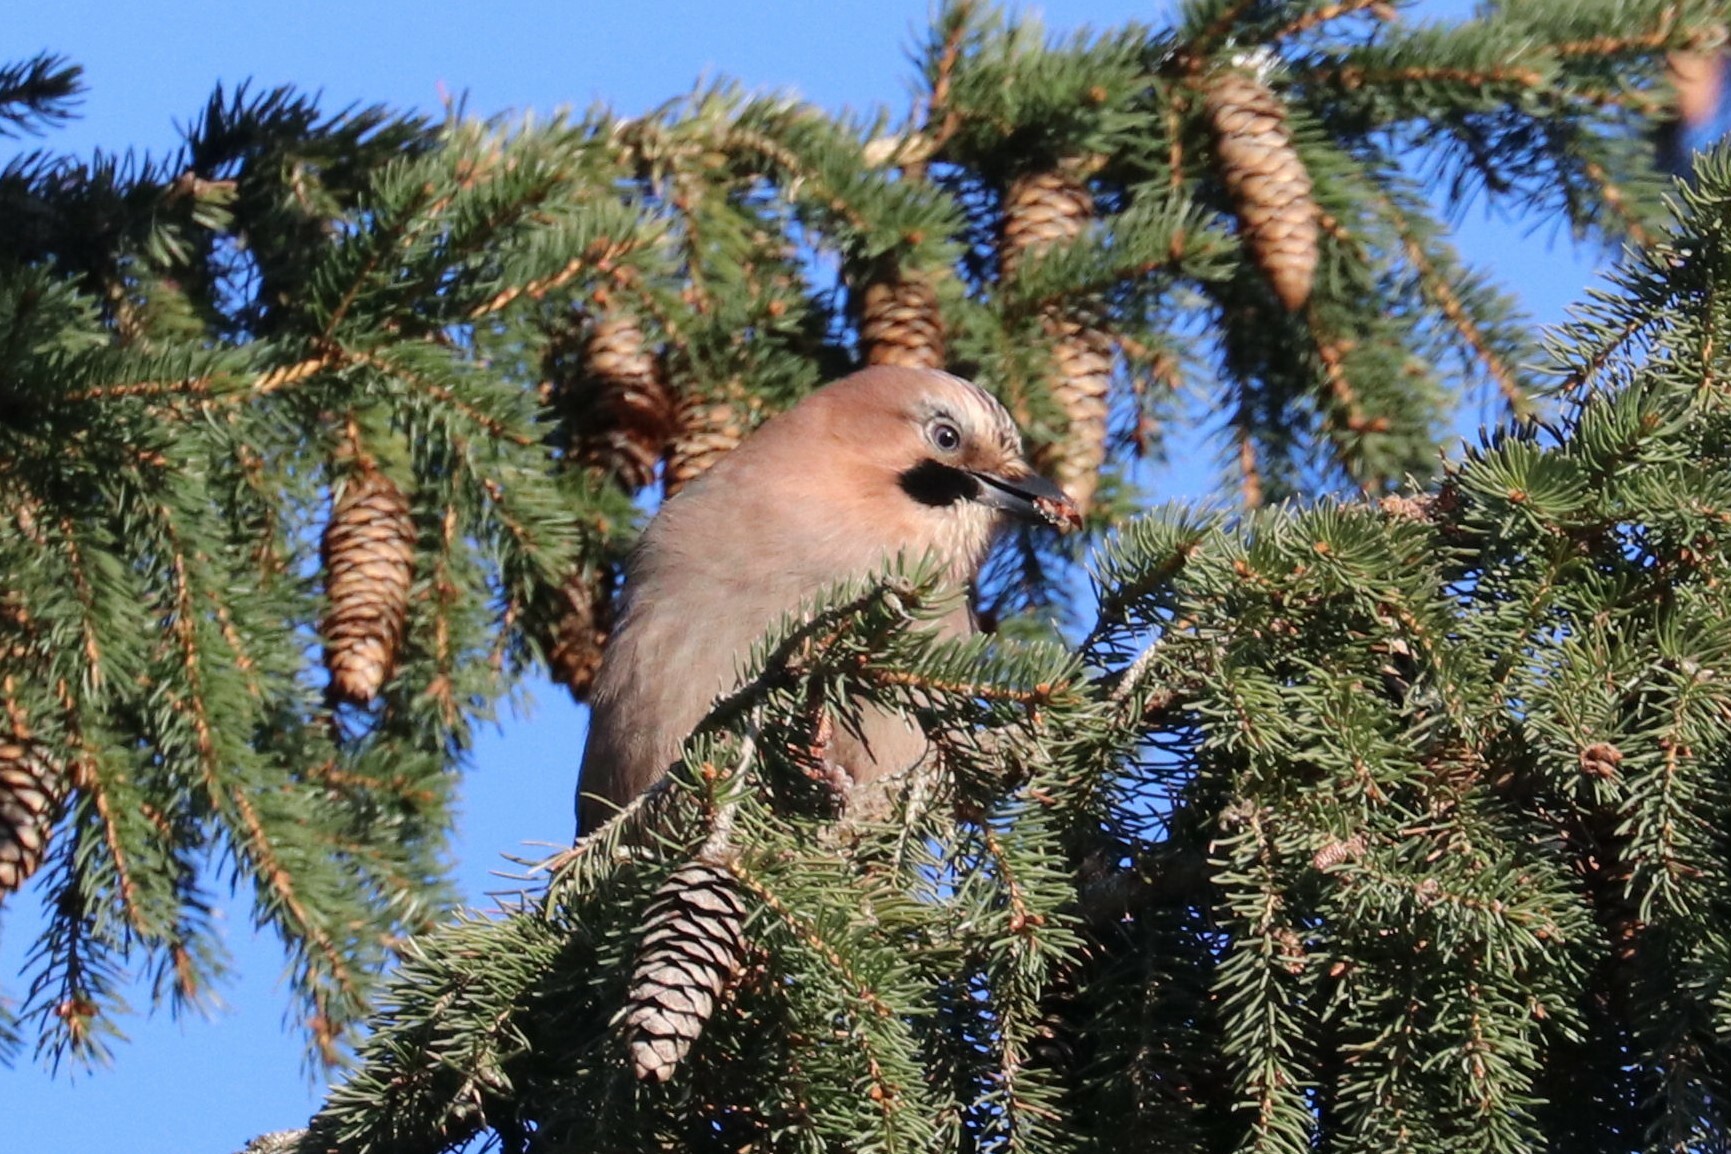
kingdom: Animalia
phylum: Chordata
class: Aves
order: Passeriformes
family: Corvidae
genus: Garrulus
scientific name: Garrulus glandarius
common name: Eurasian jay
